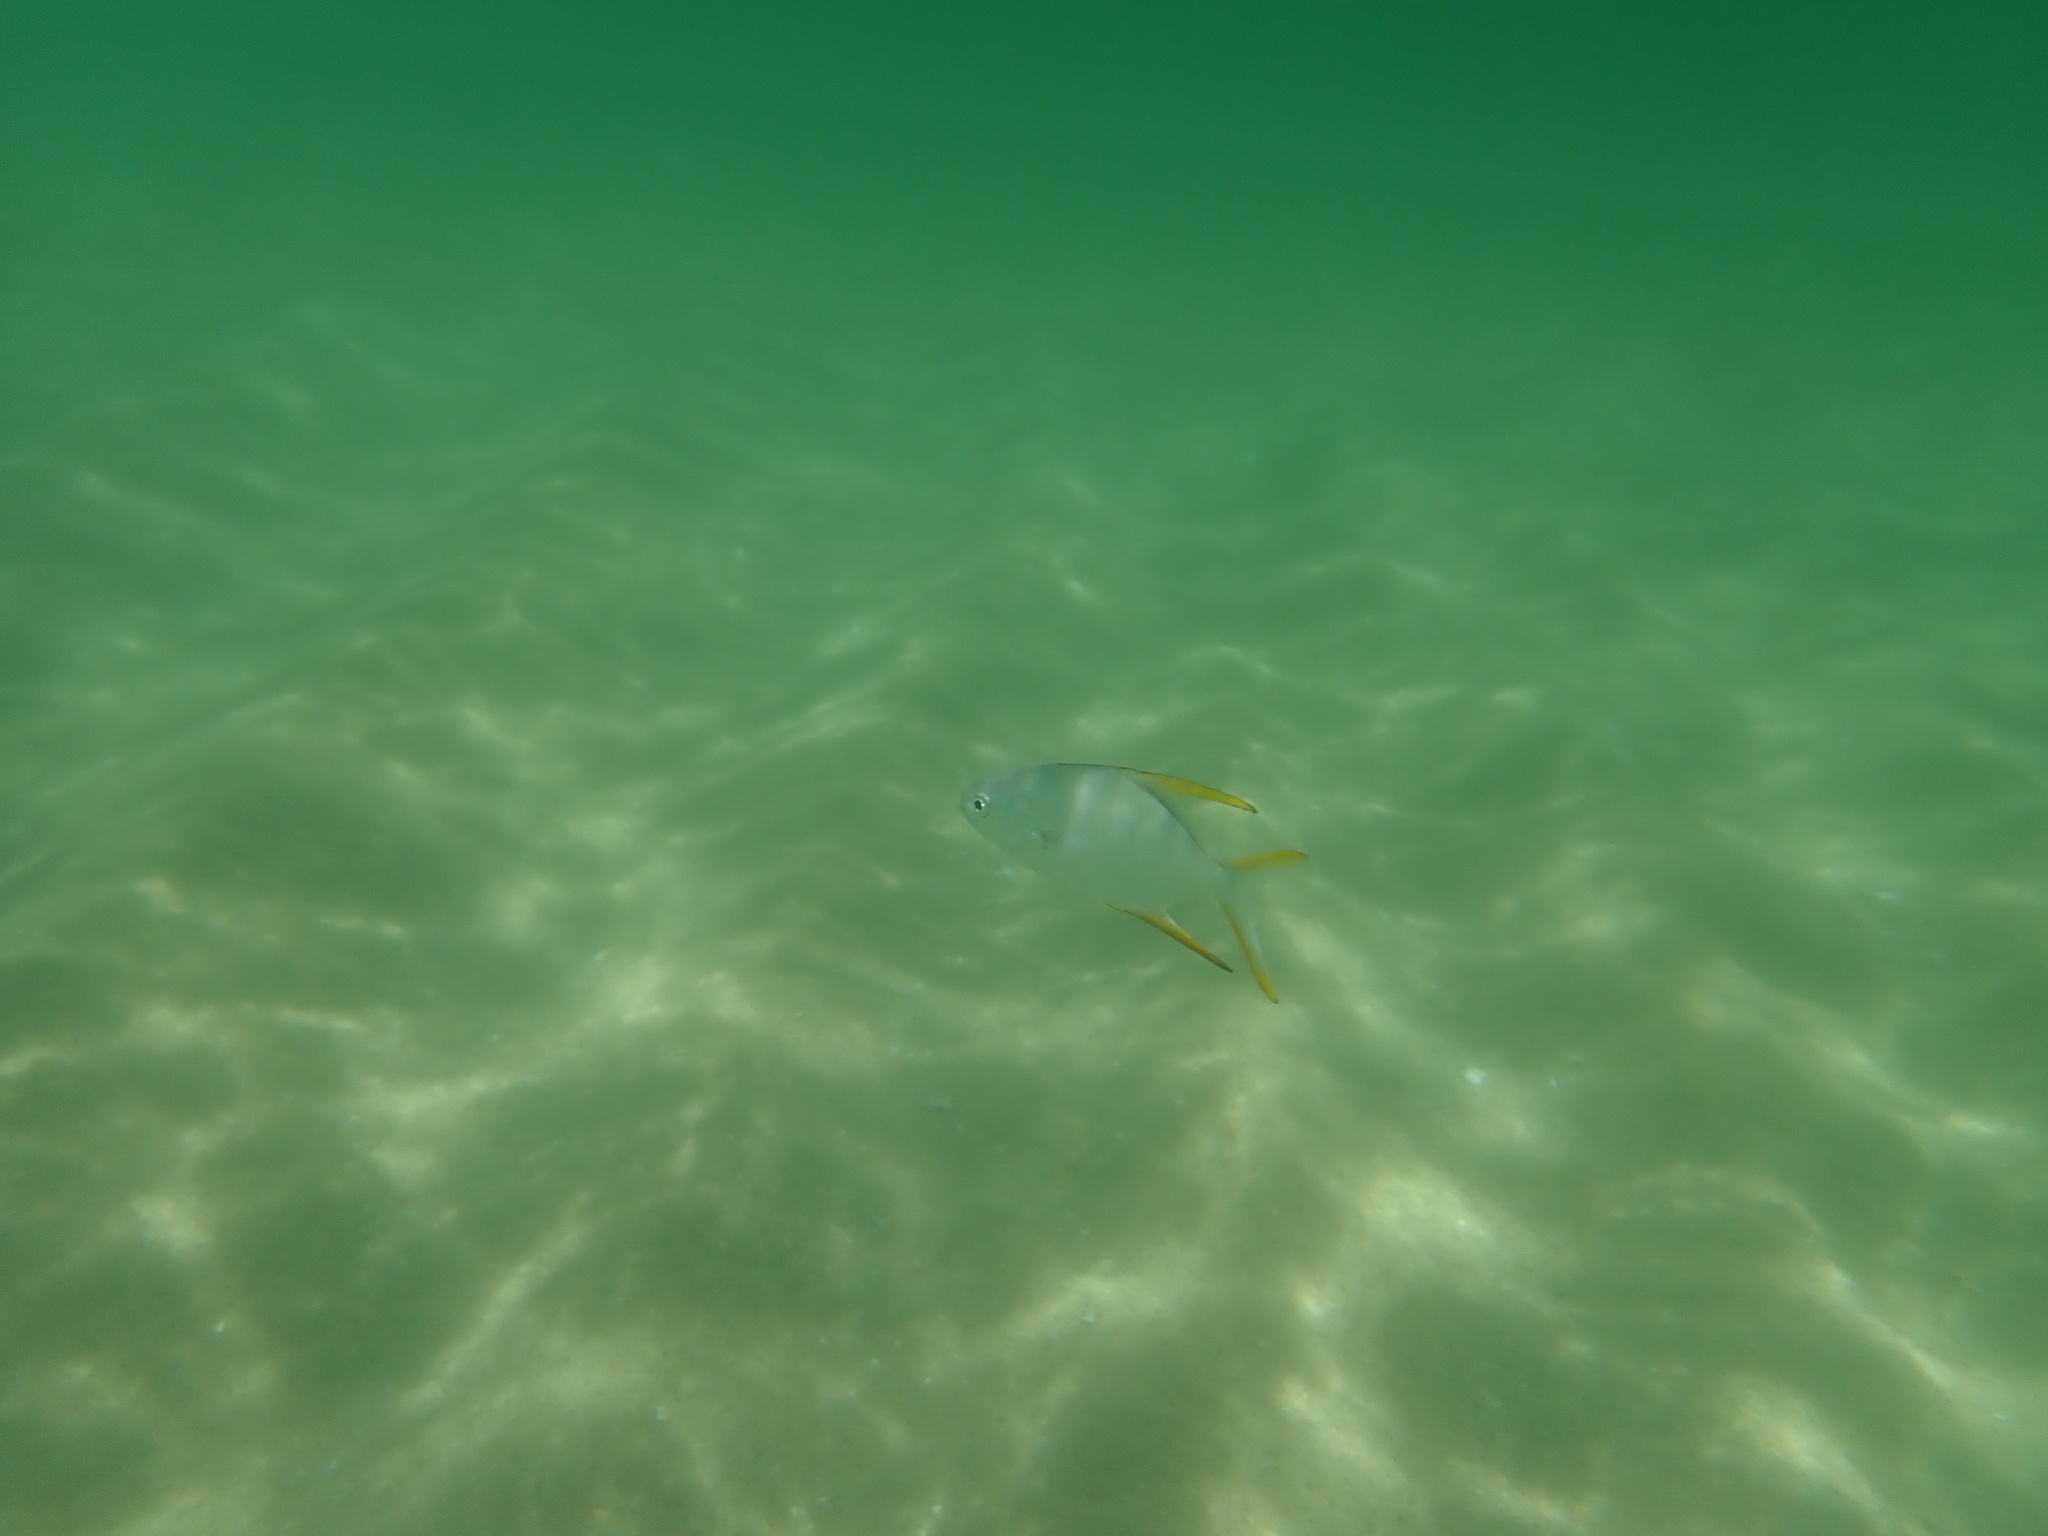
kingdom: Animalia
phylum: Chordata
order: Perciformes
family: Carangidae
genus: Trachinotus
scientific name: Trachinotus rhodopus
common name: Gafftopsail pompano
